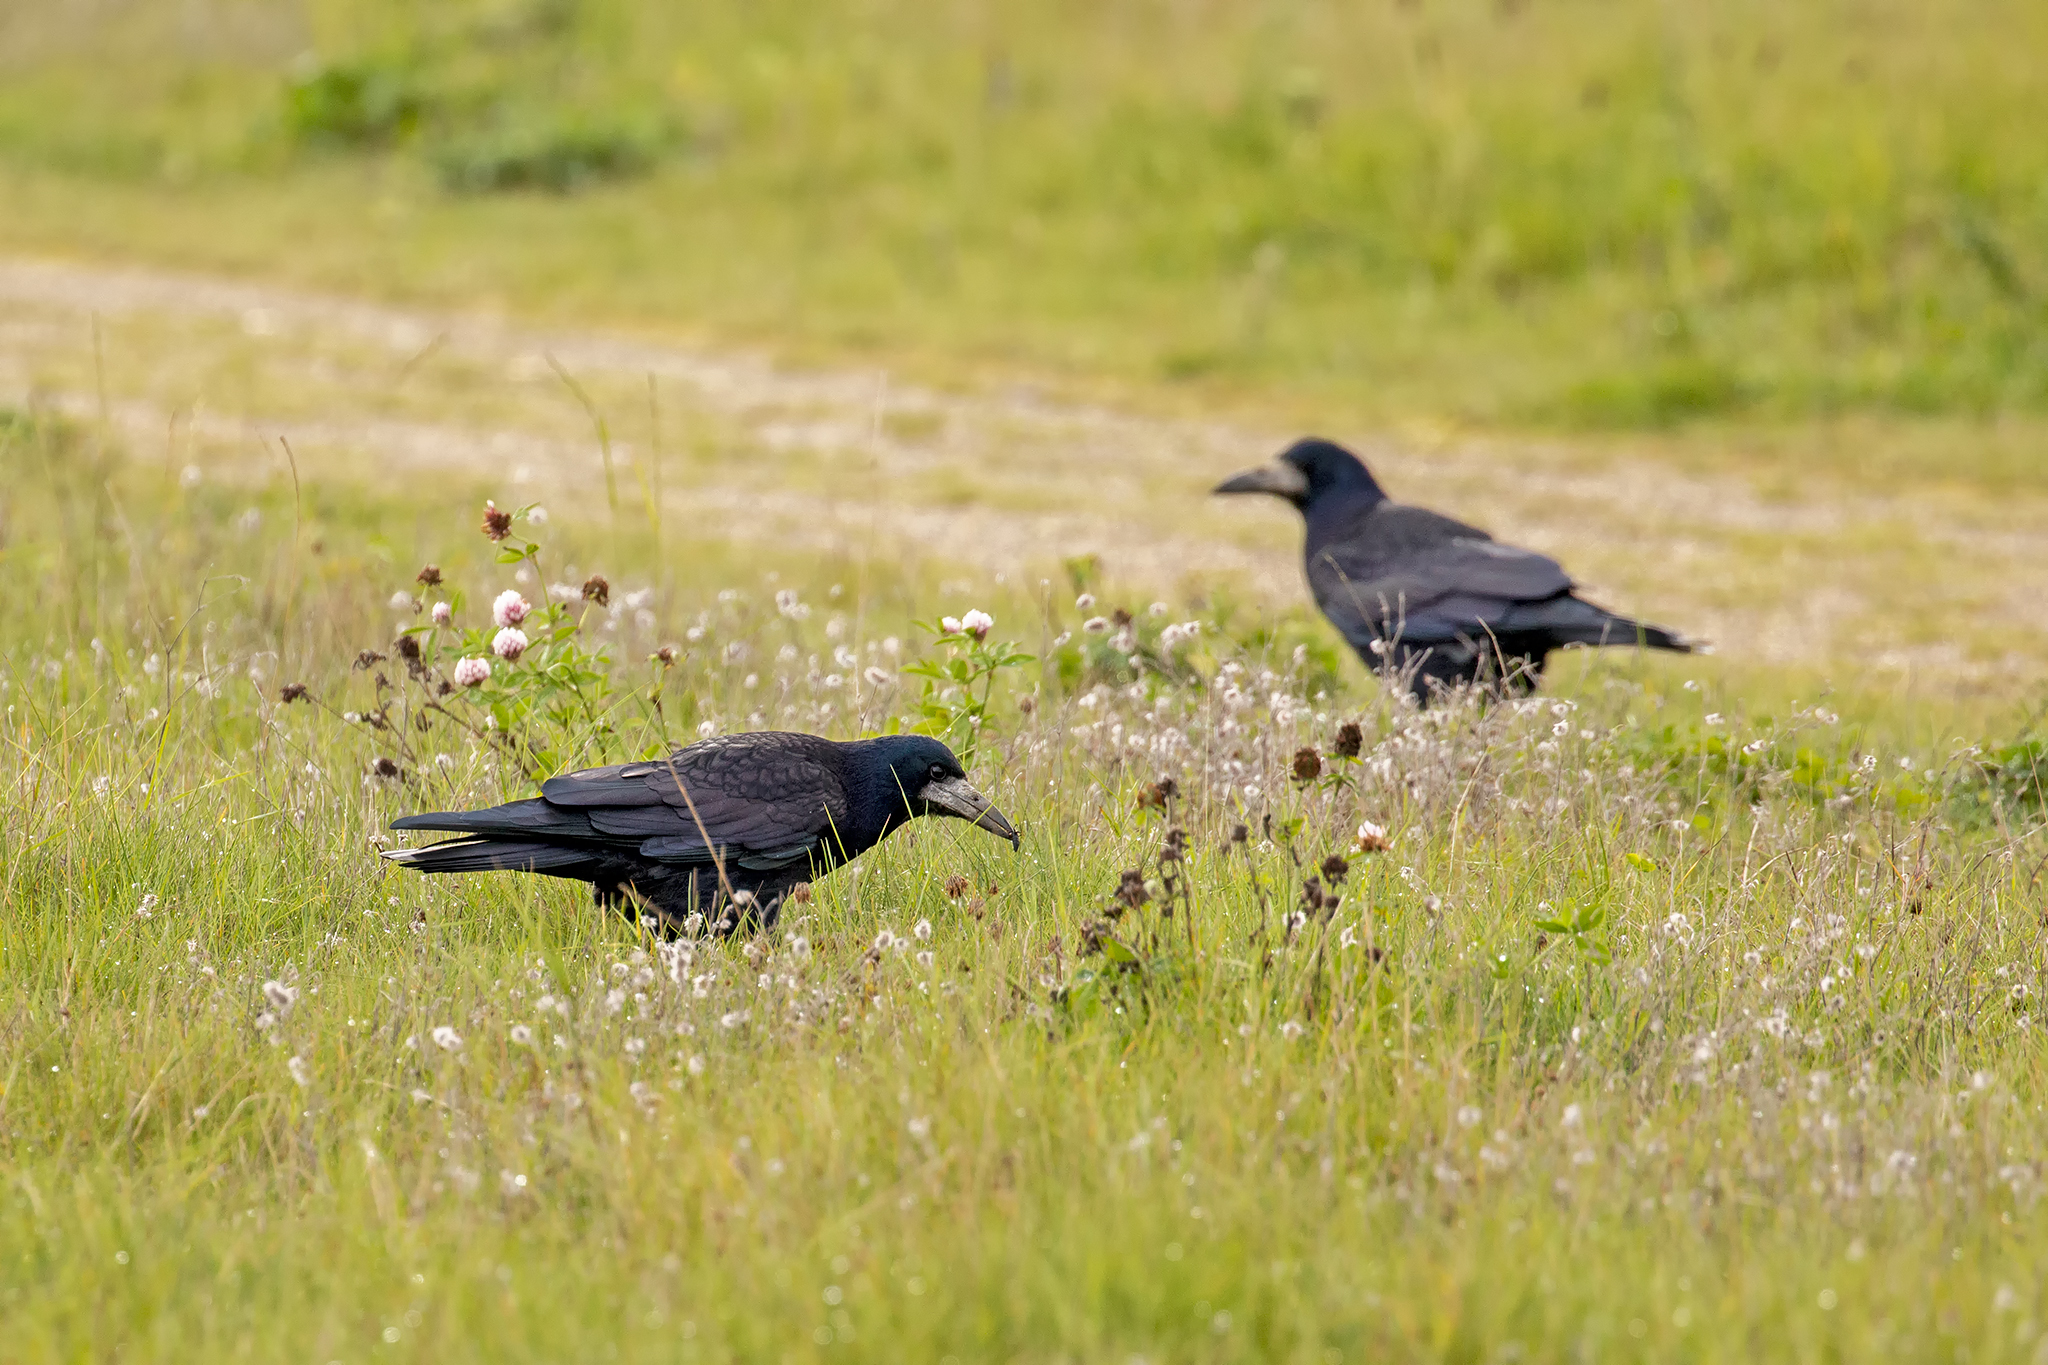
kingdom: Animalia
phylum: Chordata
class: Aves
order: Passeriformes
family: Corvidae
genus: Corvus
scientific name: Corvus frugilegus
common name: Rook
